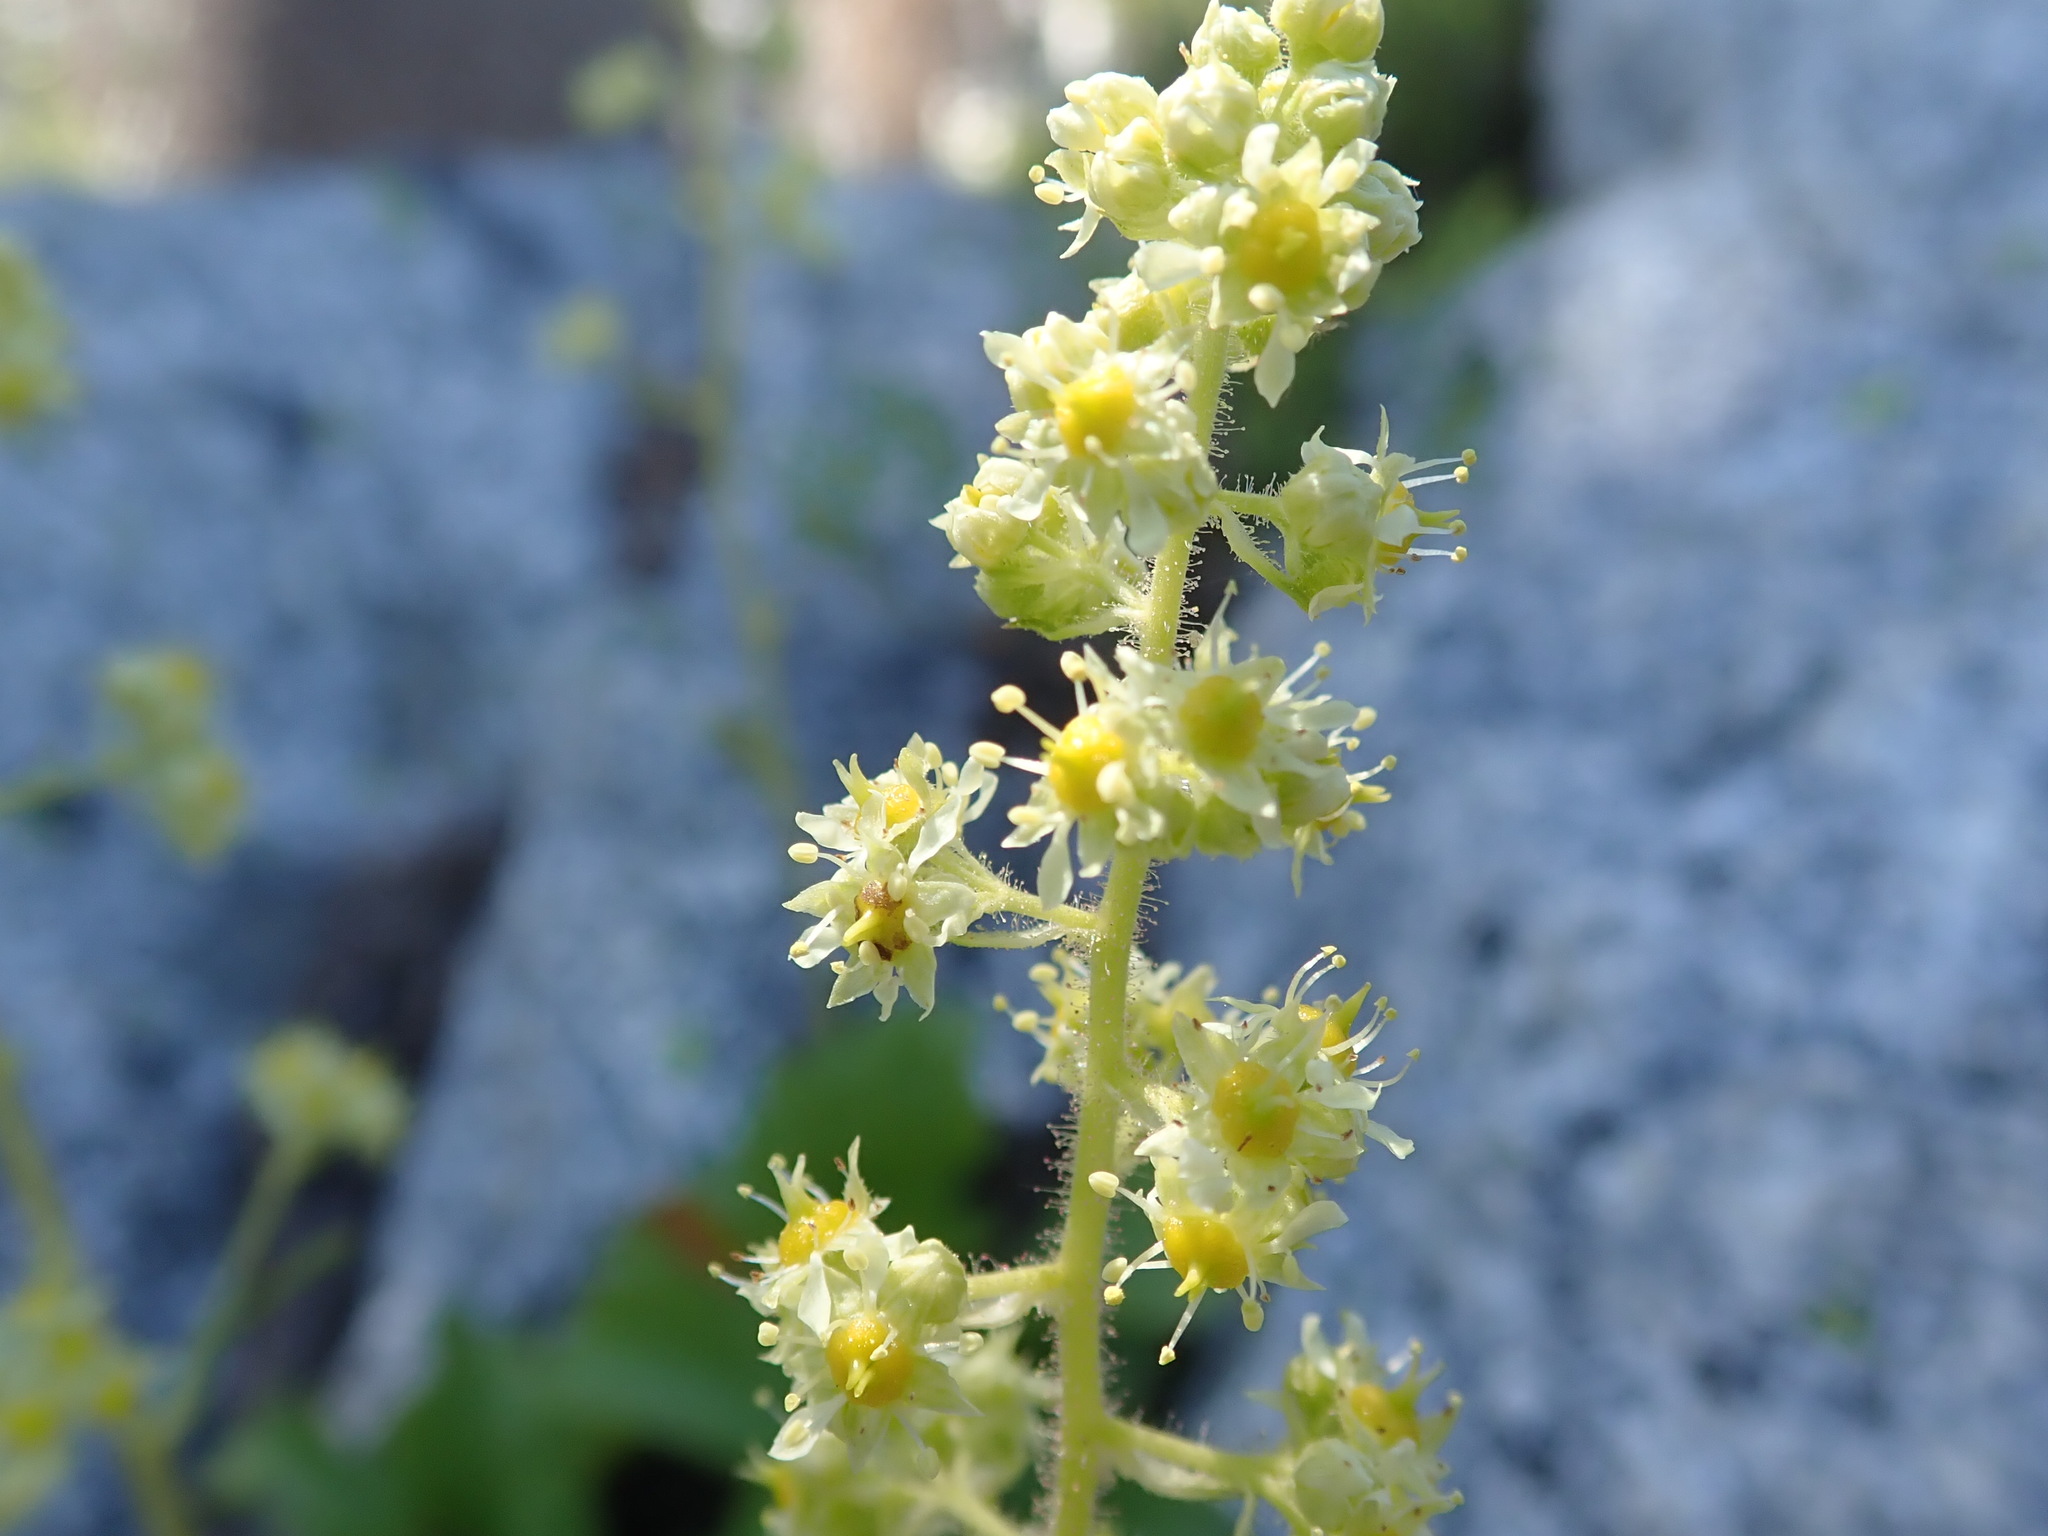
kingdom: Plantae
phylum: Tracheophyta
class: Magnoliopsida
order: Saxifragales
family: Saxifragaceae
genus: Saxifragopsis
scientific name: Saxifragopsis fragarioides
